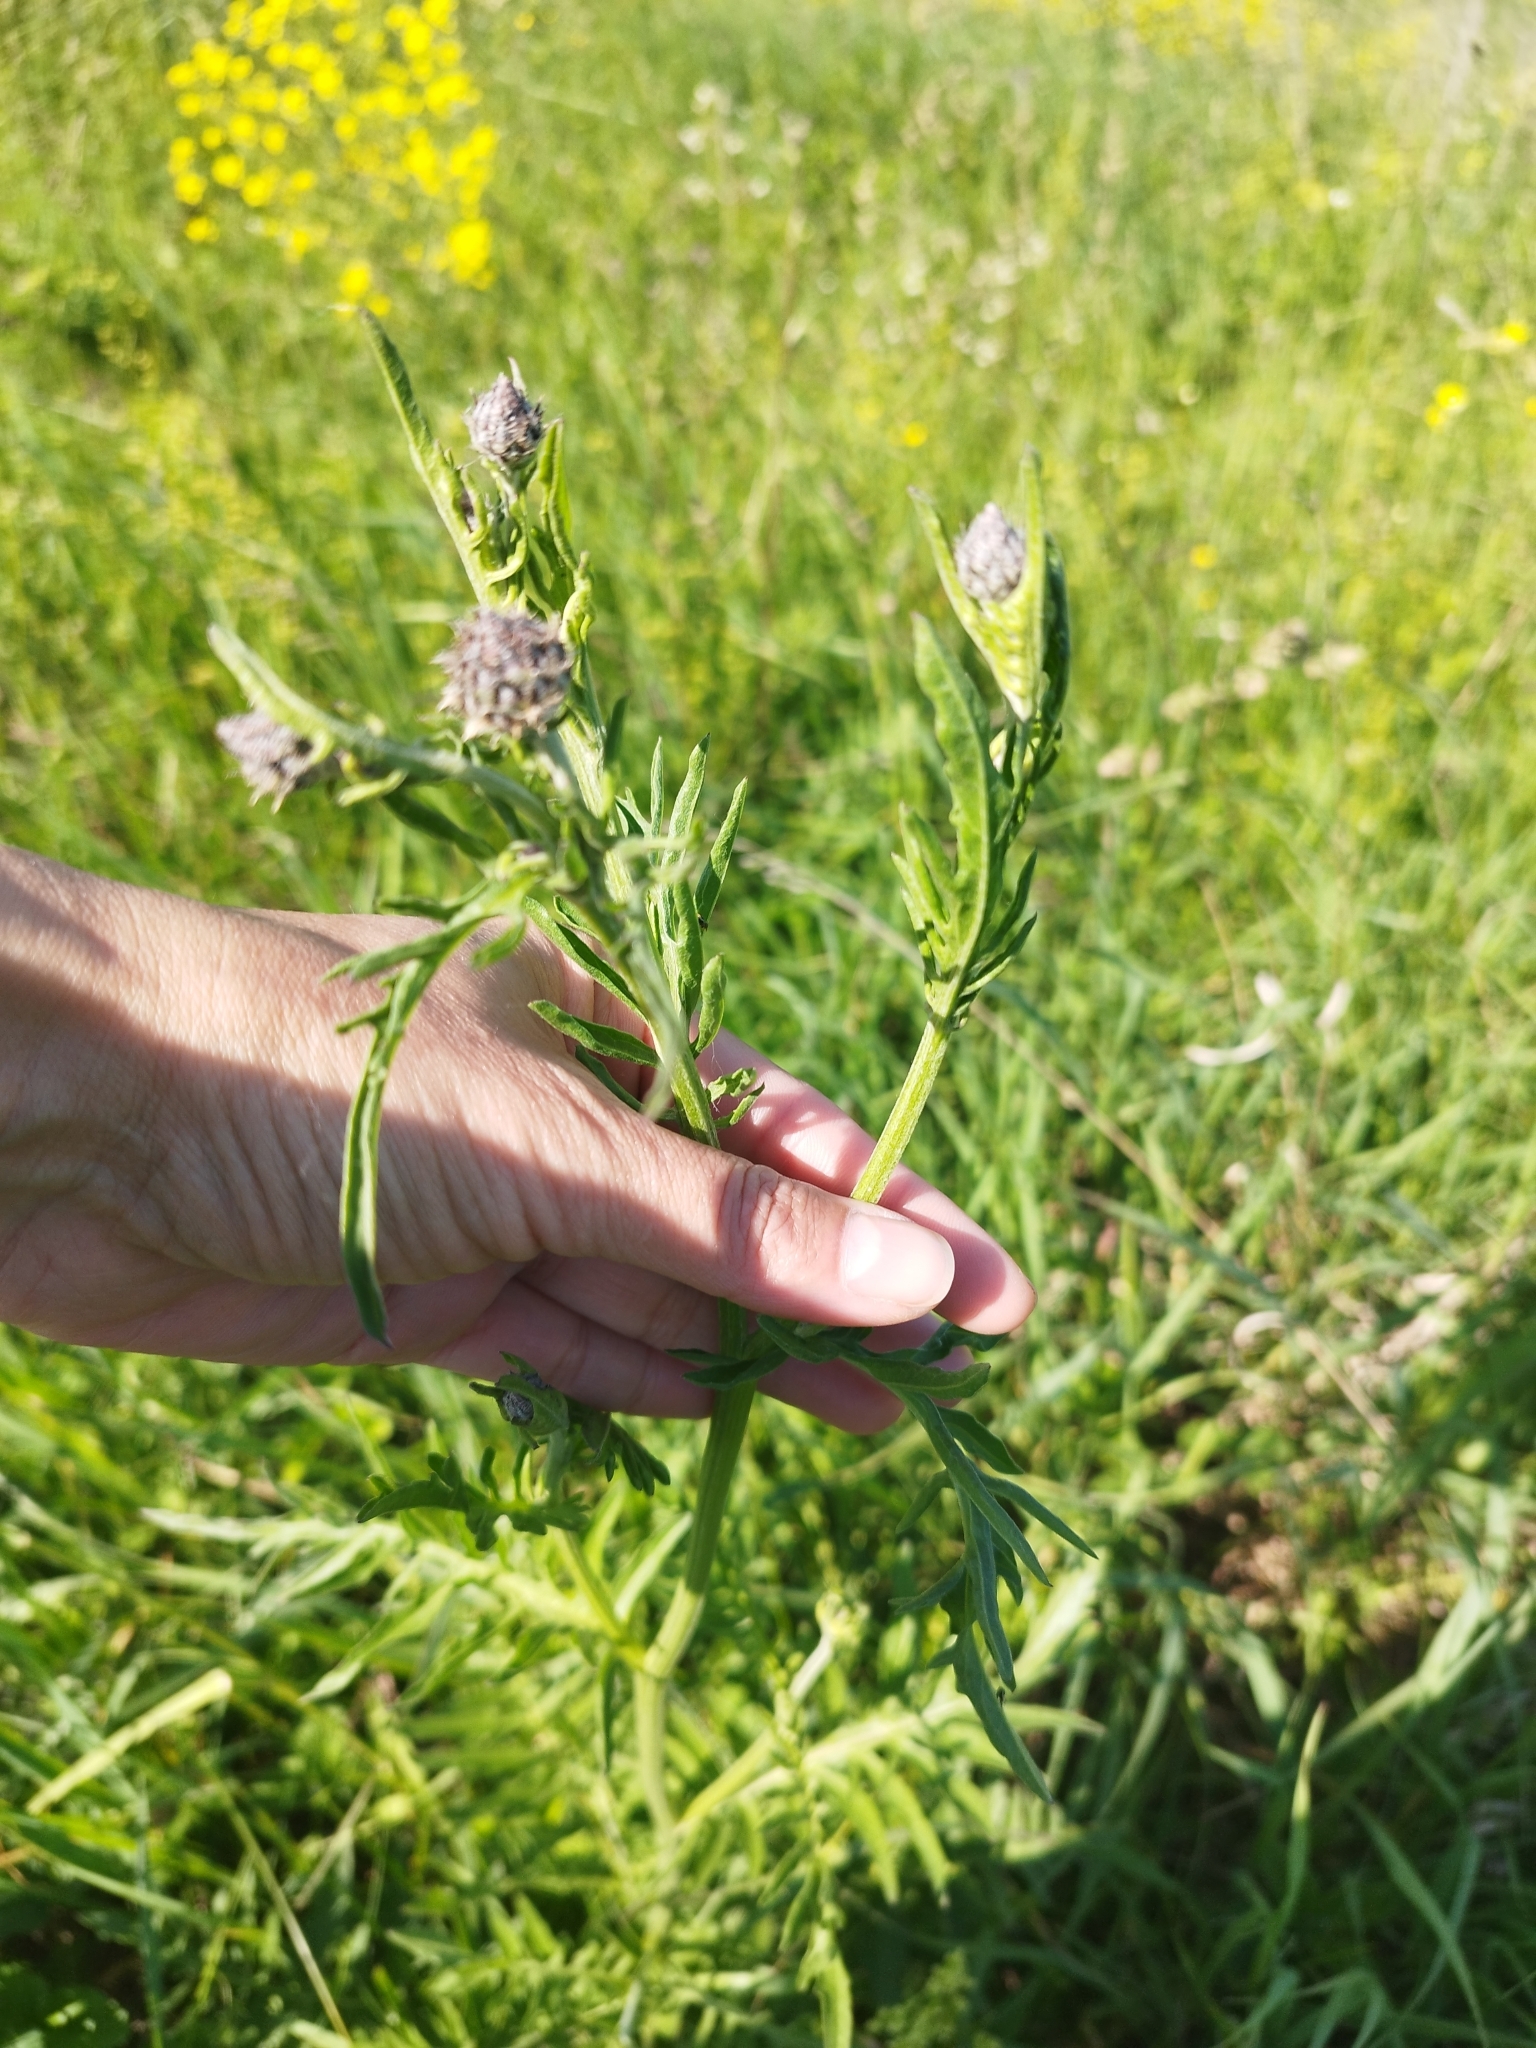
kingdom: Plantae
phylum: Tracheophyta
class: Magnoliopsida
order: Asterales
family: Asteraceae
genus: Centaurea
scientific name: Centaurea scabiosa
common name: Greater knapweed
